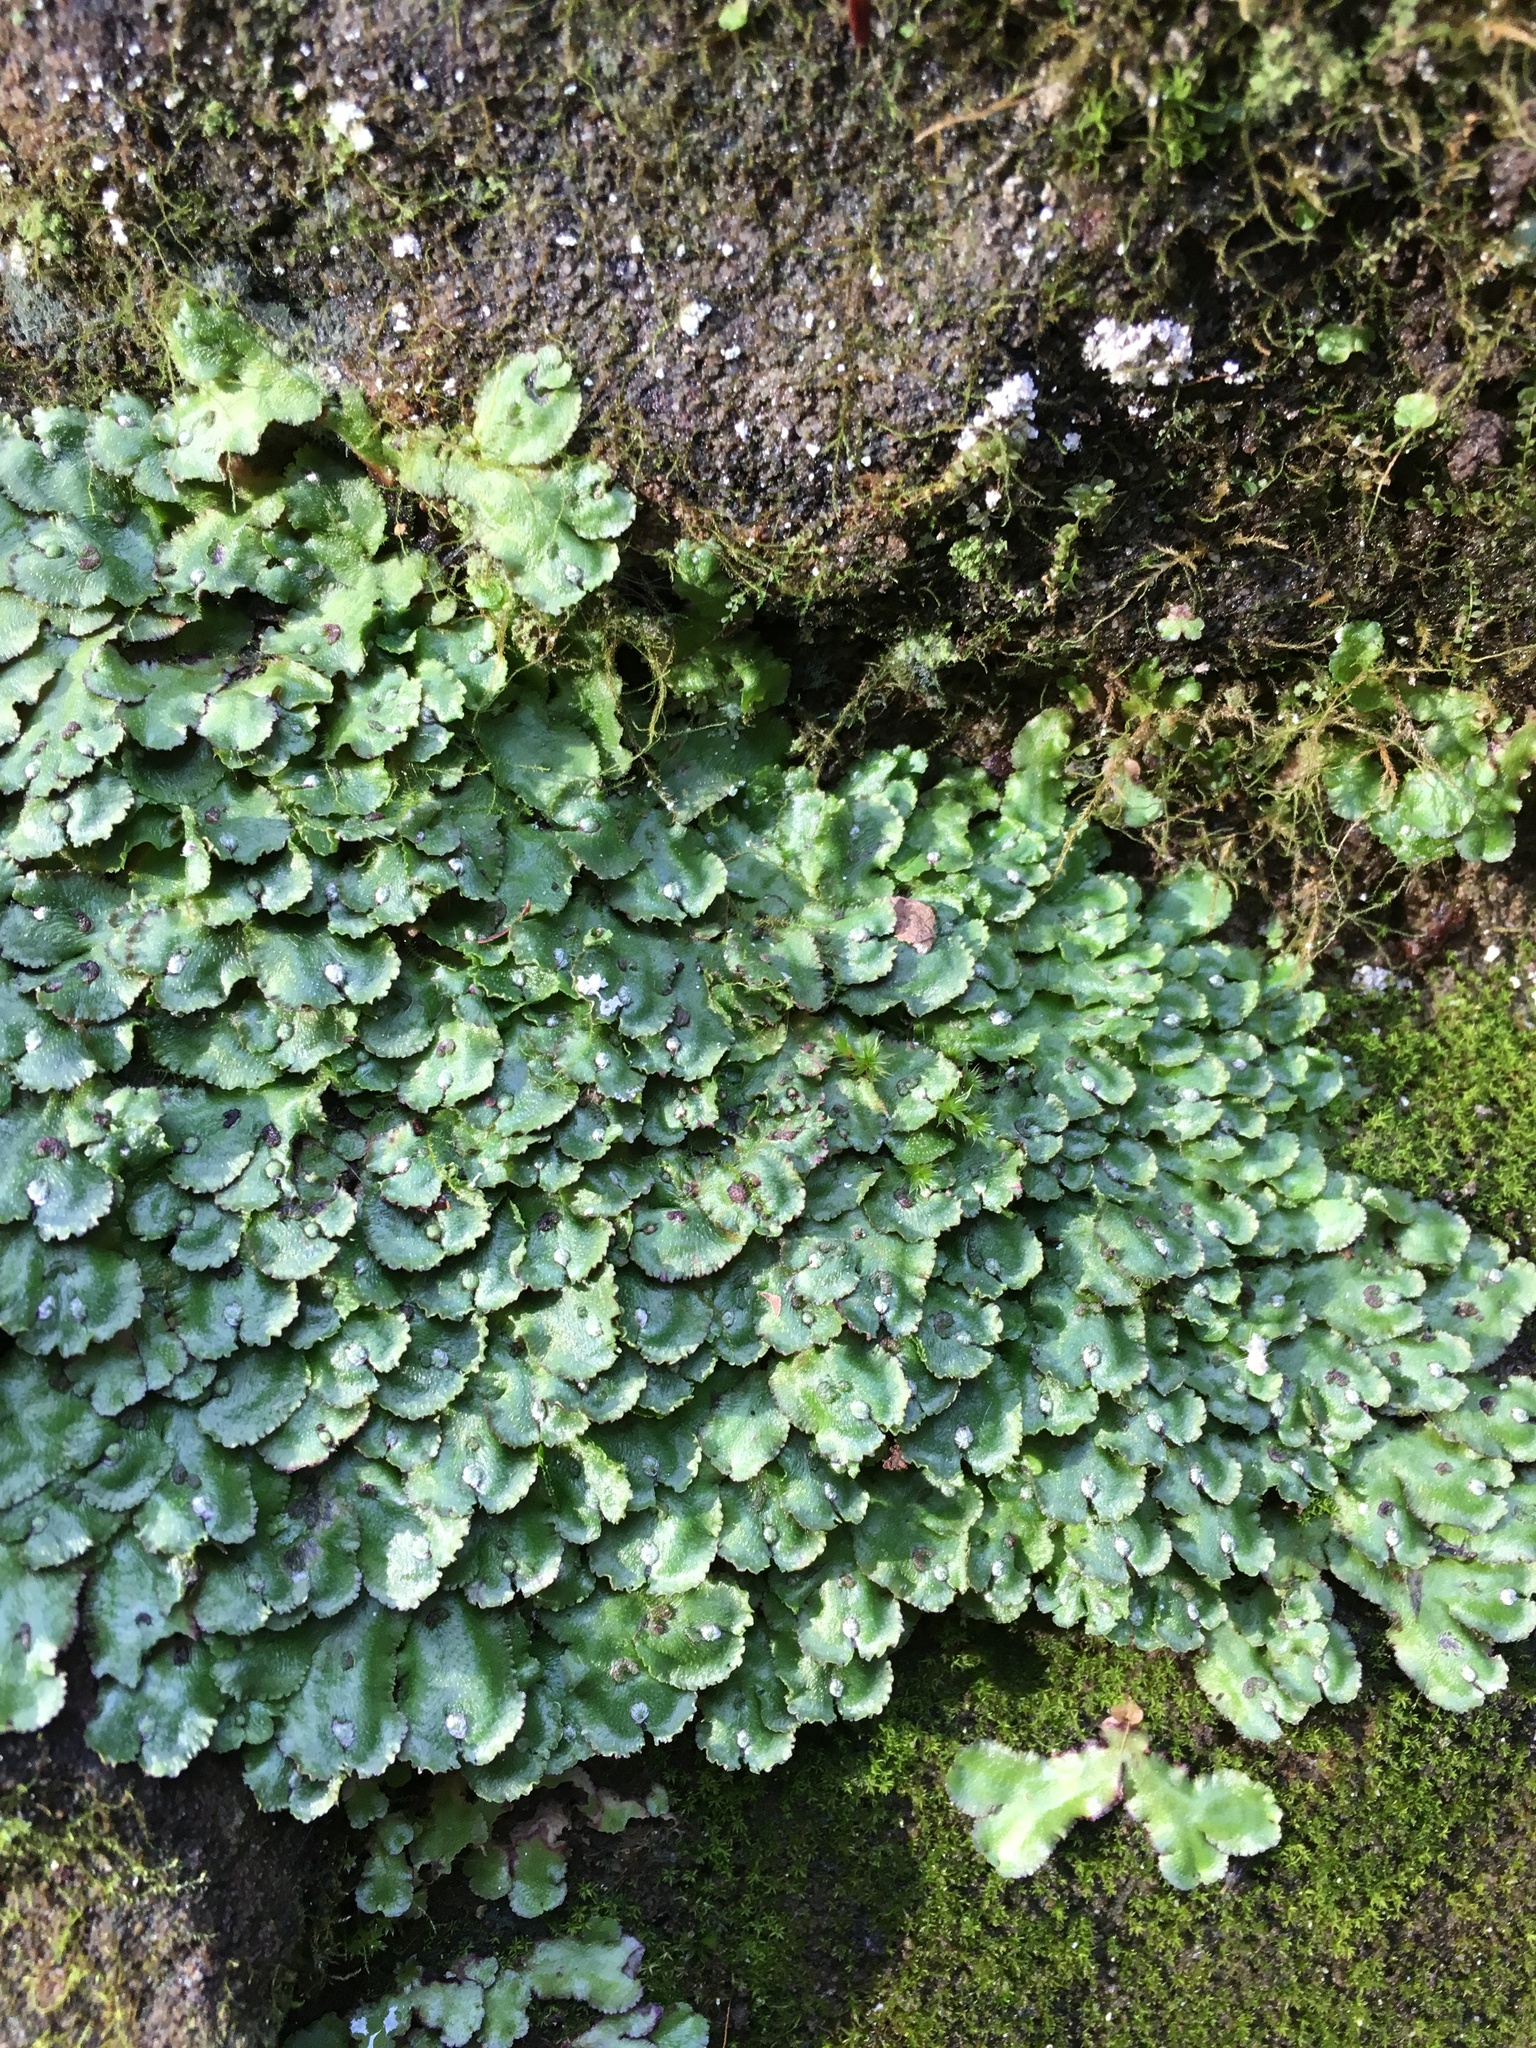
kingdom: Plantae
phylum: Marchantiophyta
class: Marchantiopsida
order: Marchantiales
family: Aytoniaceae
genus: Reboulia
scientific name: Reboulia hemisphaerica
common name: Purple-margined liverwort
